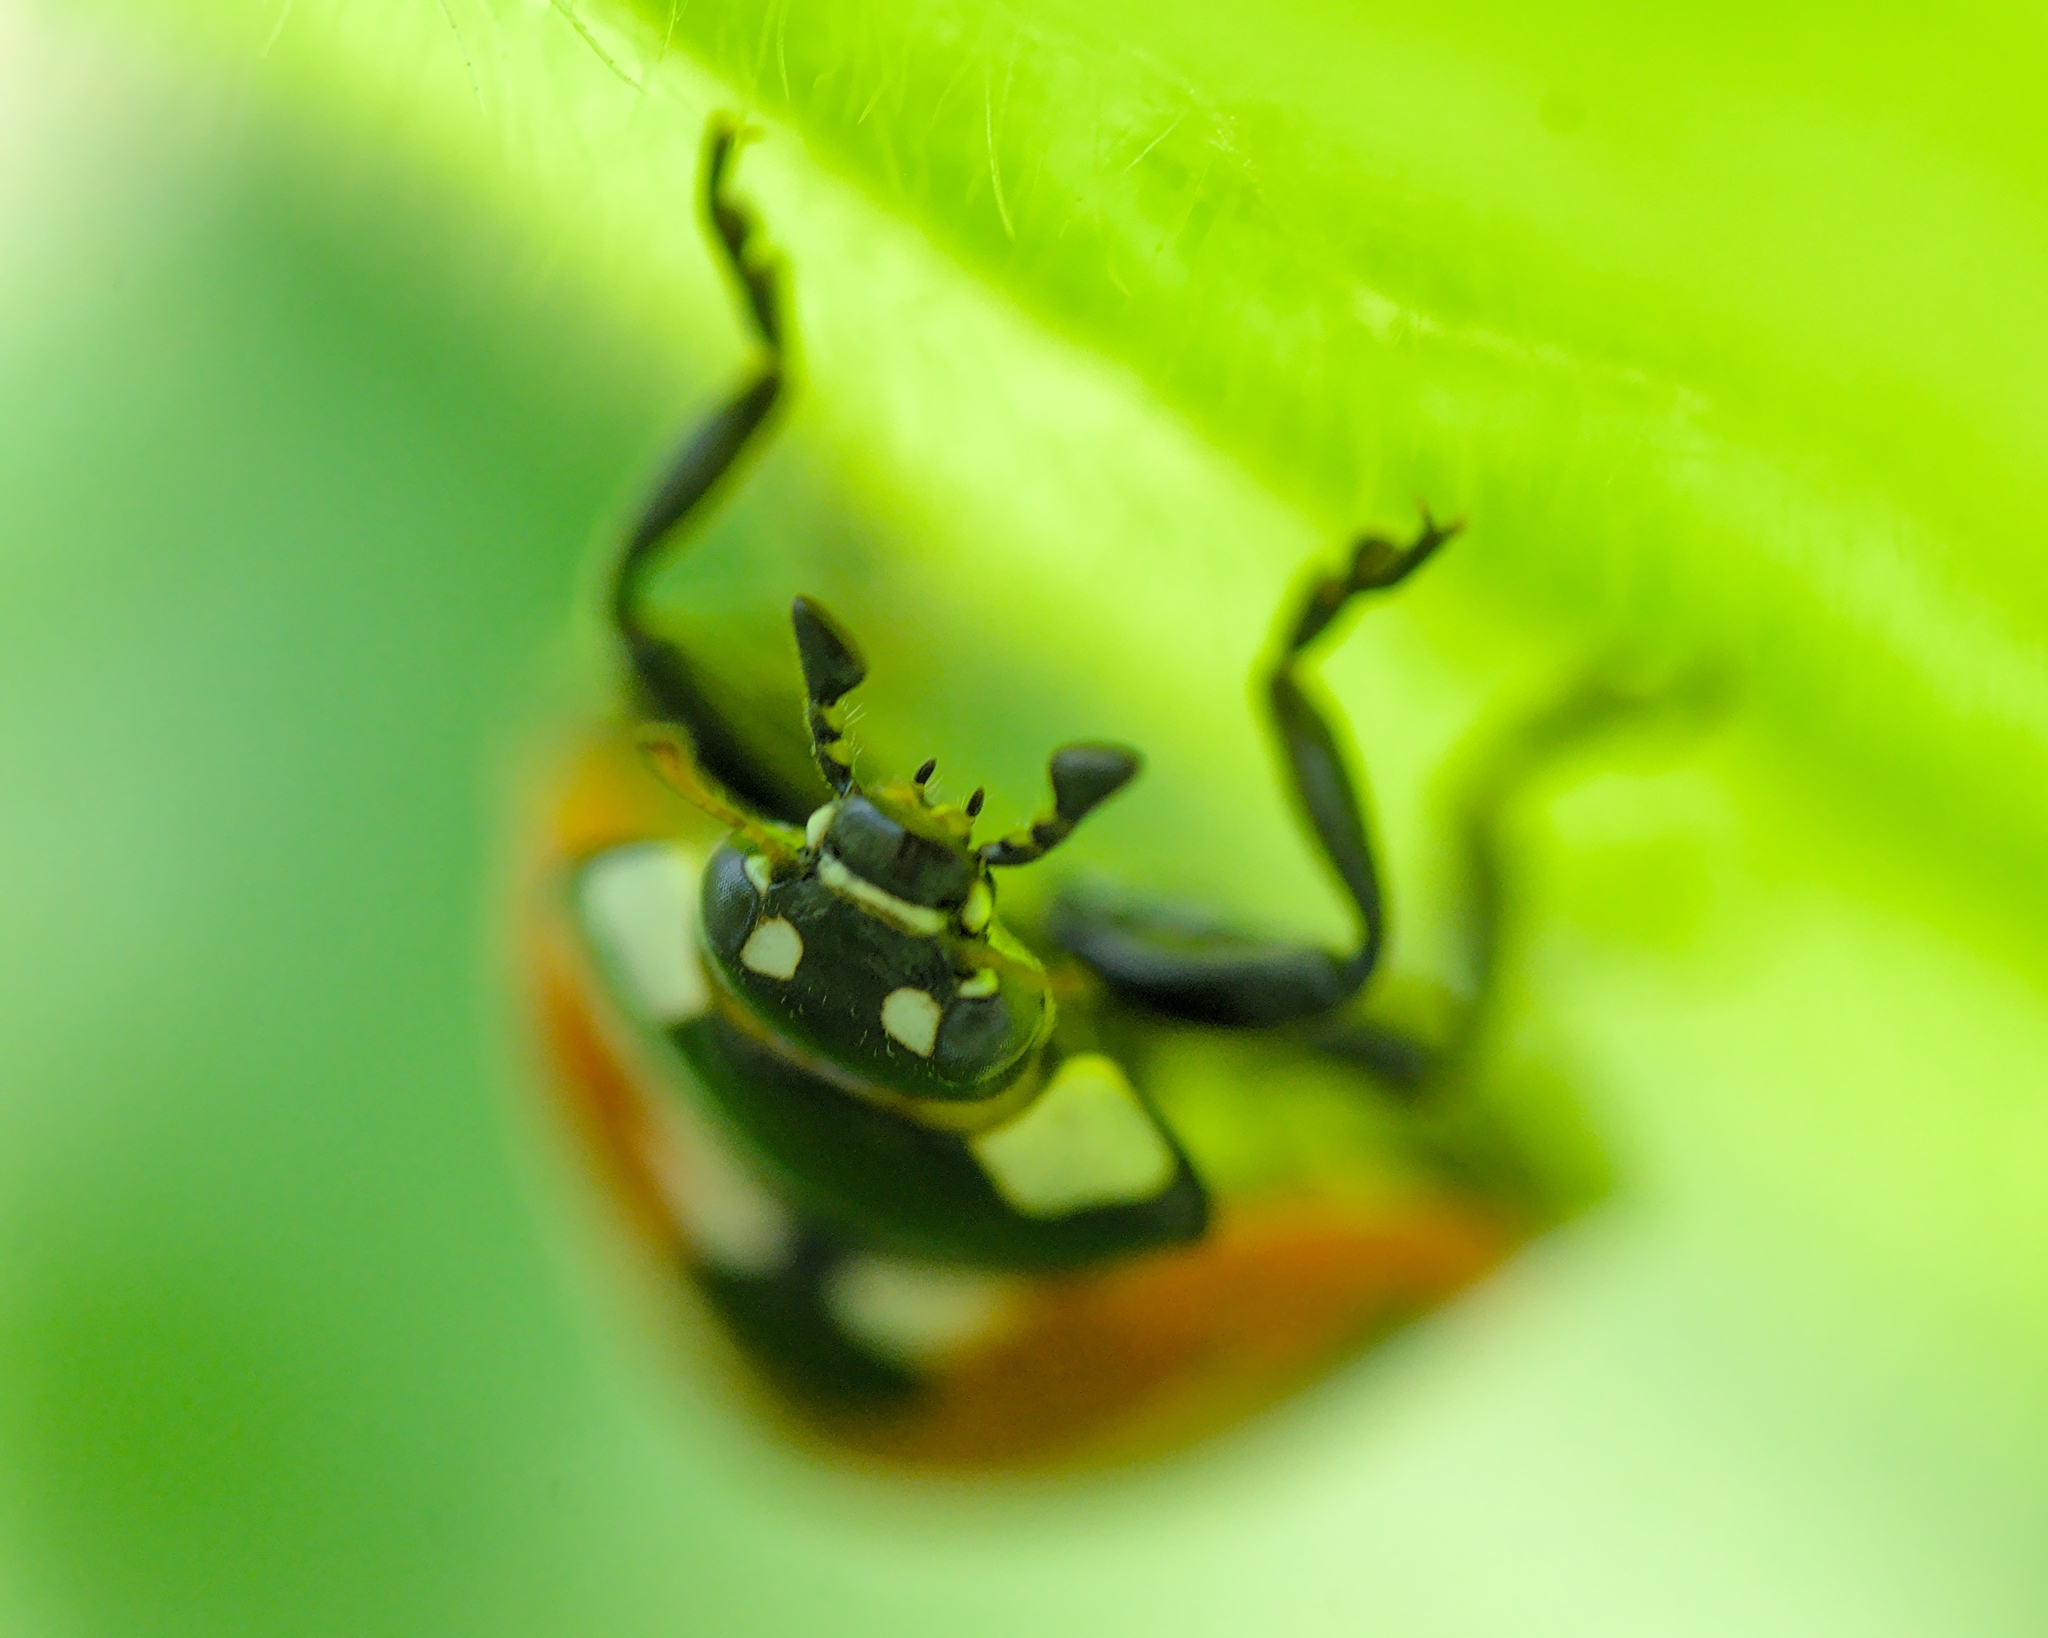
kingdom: Animalia
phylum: Arthropoda
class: Insecta
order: Coleoptera
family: Coccinellidae
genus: Coccinella
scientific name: Coccinella septempunctata
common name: Sevenspotted lady beetle
